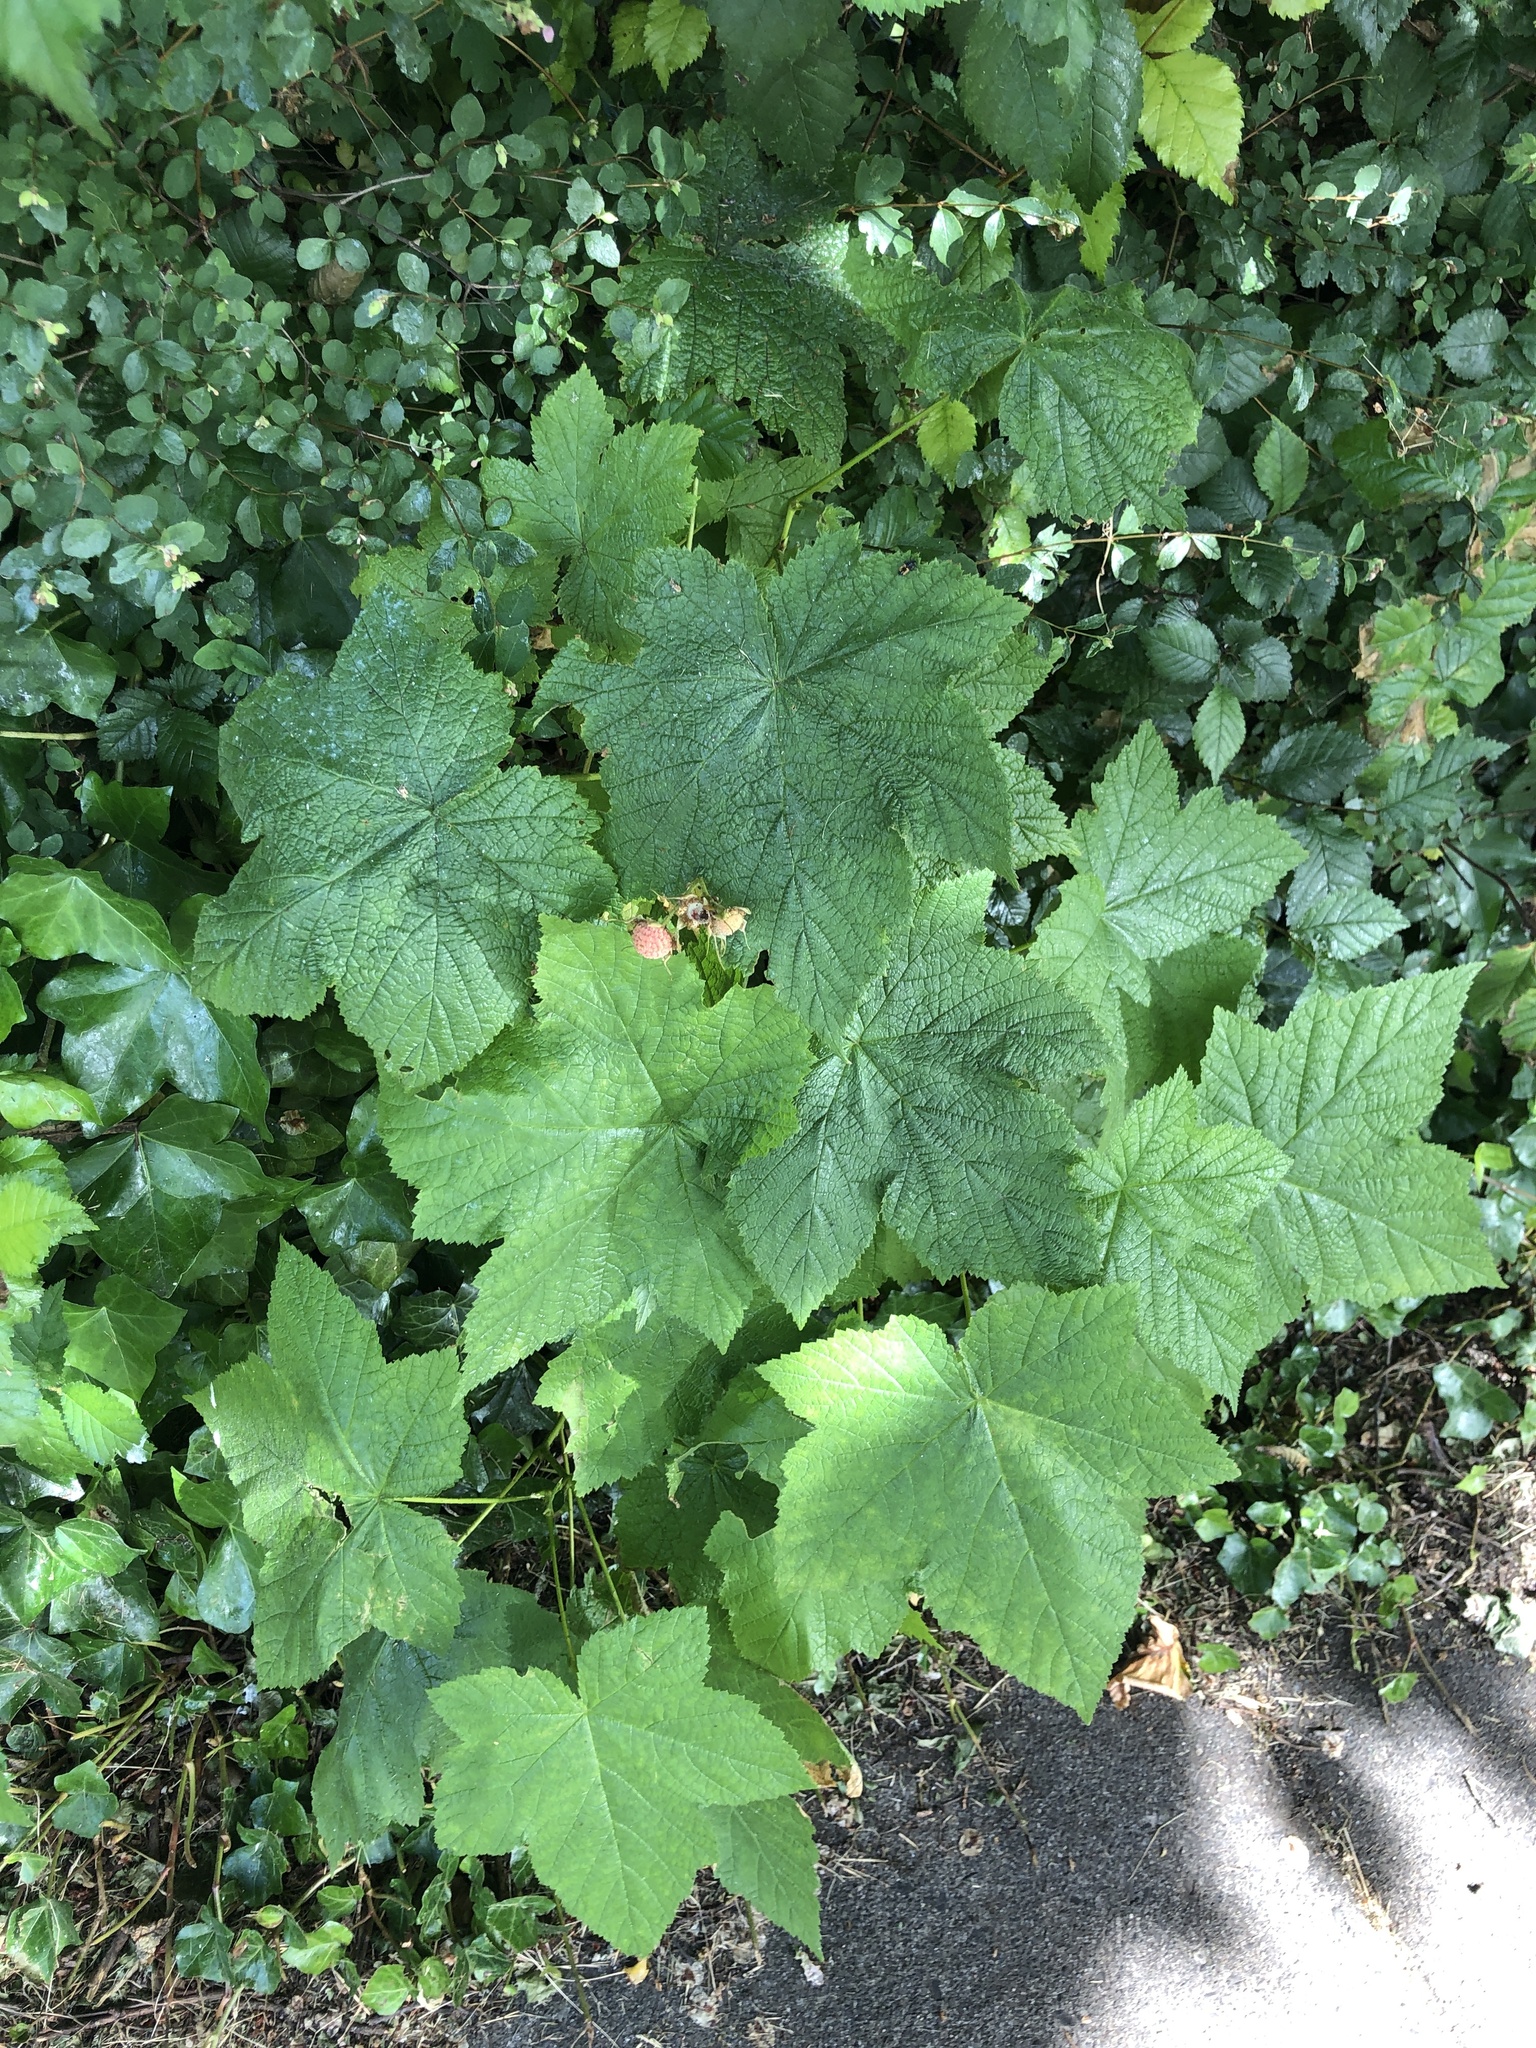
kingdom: Plantae
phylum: Tracheophyta
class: Magnoliopsida
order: Rosales
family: Rosaceae
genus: Rubus
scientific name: Rubus parviflorus
